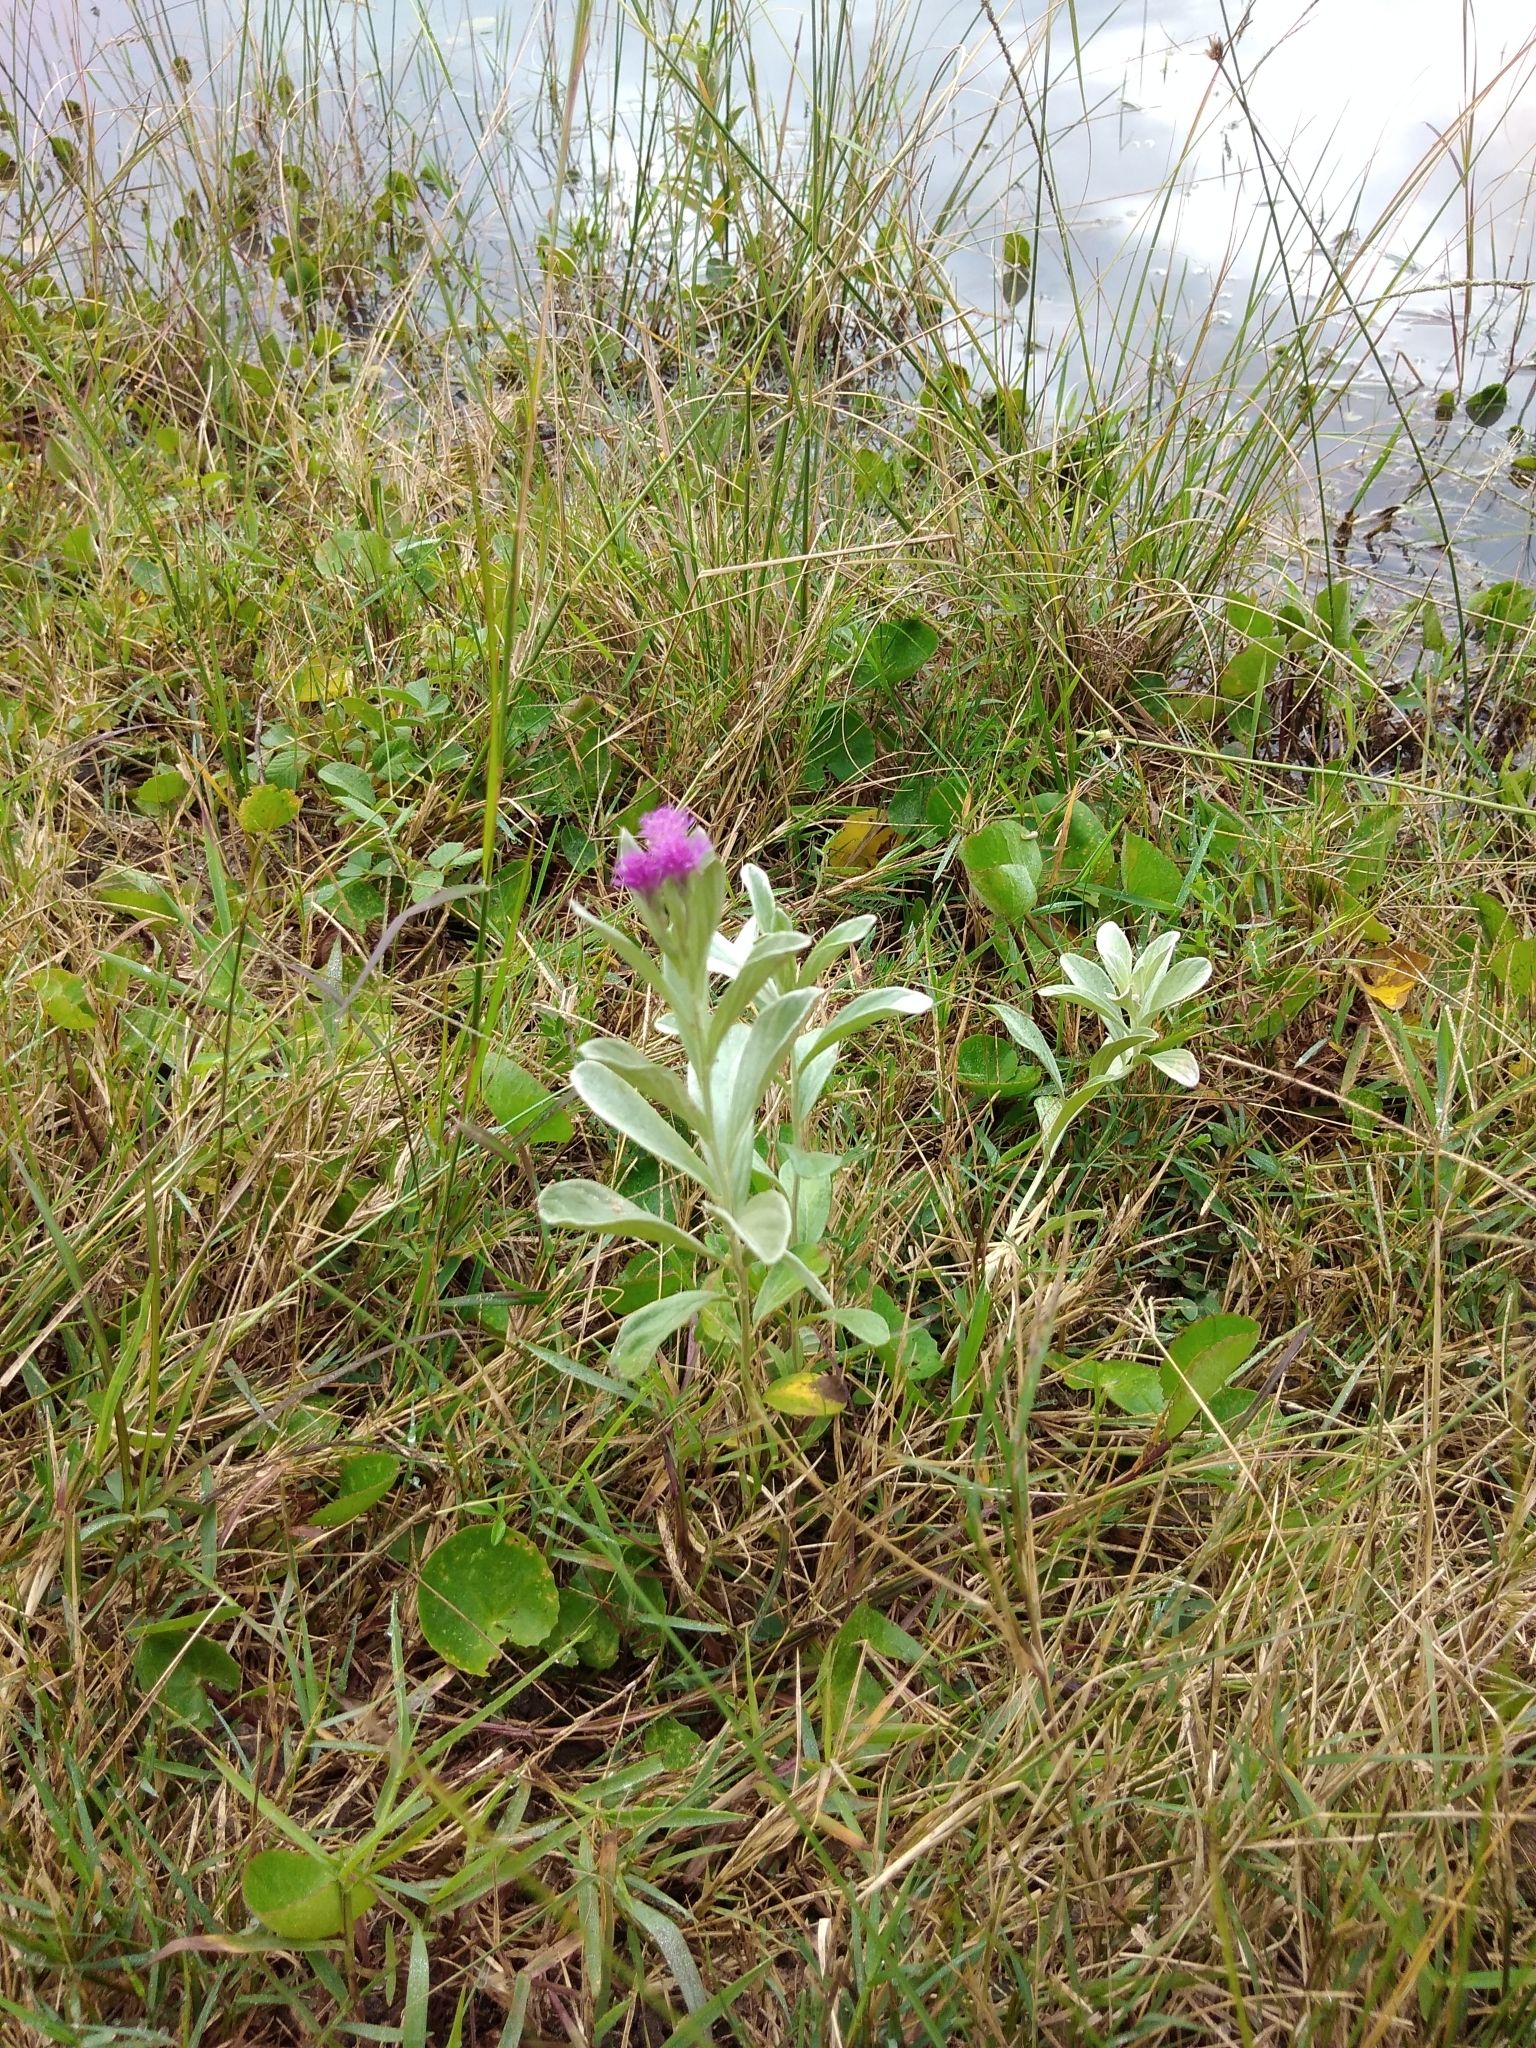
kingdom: Plantae
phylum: Tracheophyta
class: Magnoliopsida
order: Asterales
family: Asteraceae
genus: Hilliardiella
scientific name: Hilliardiella aristata
